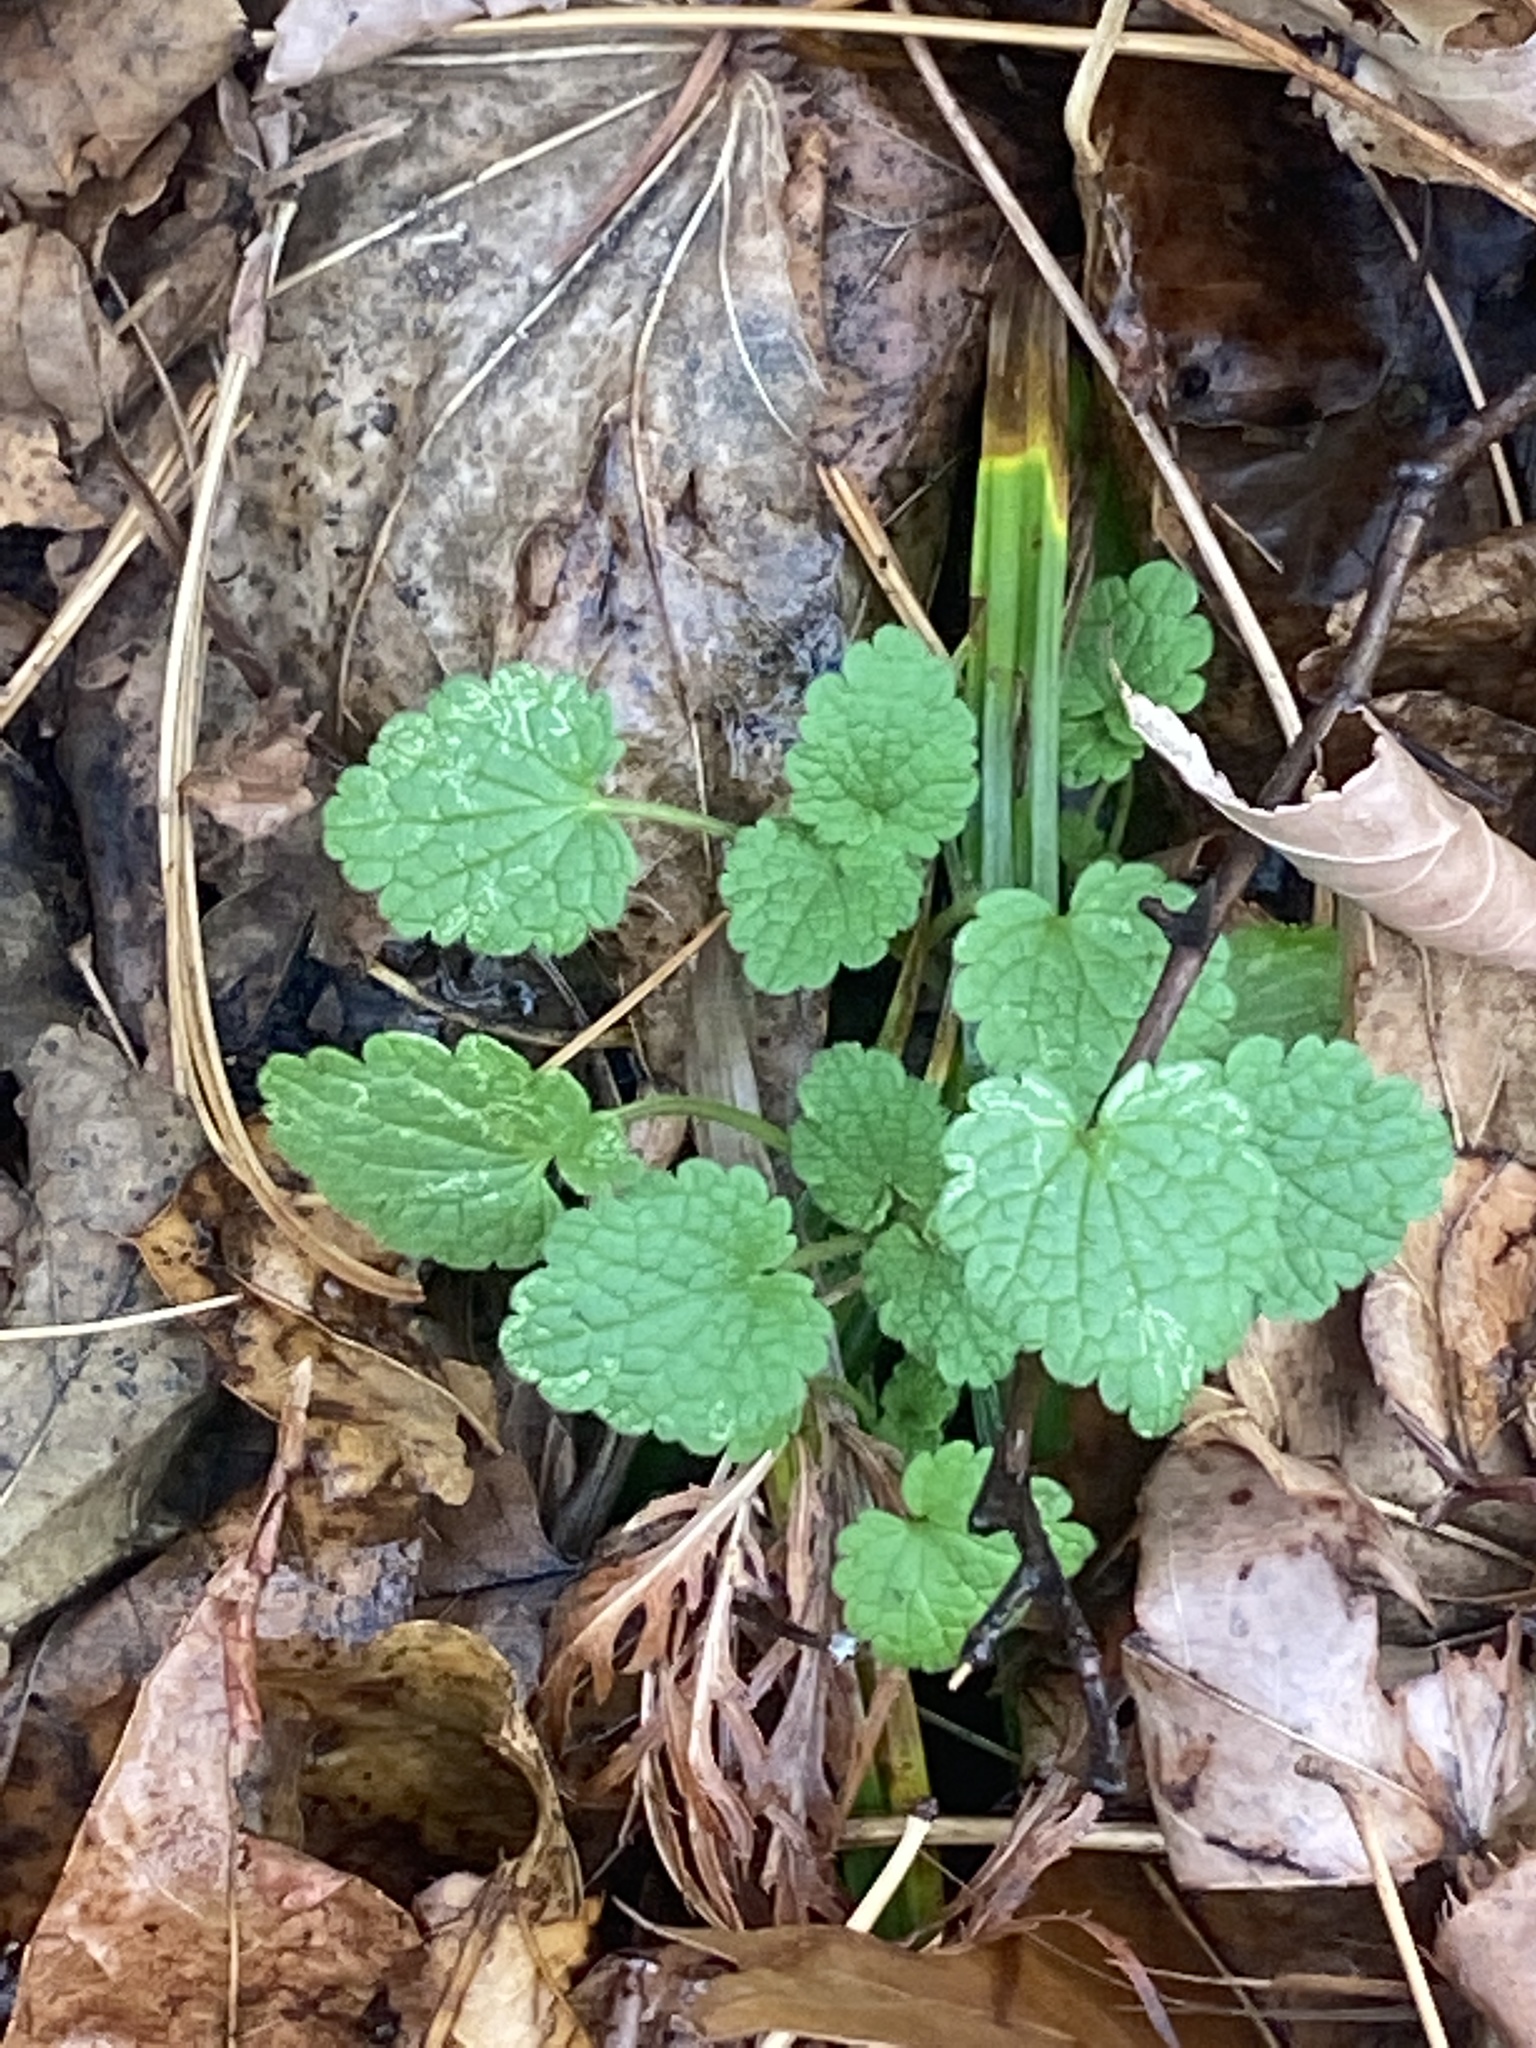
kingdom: Plantae
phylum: Tracheophyta
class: Magnoliopsida
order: Lamiales
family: Lamiaceae
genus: Lamium
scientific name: Lamium purpureum
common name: Red dead-nettle
